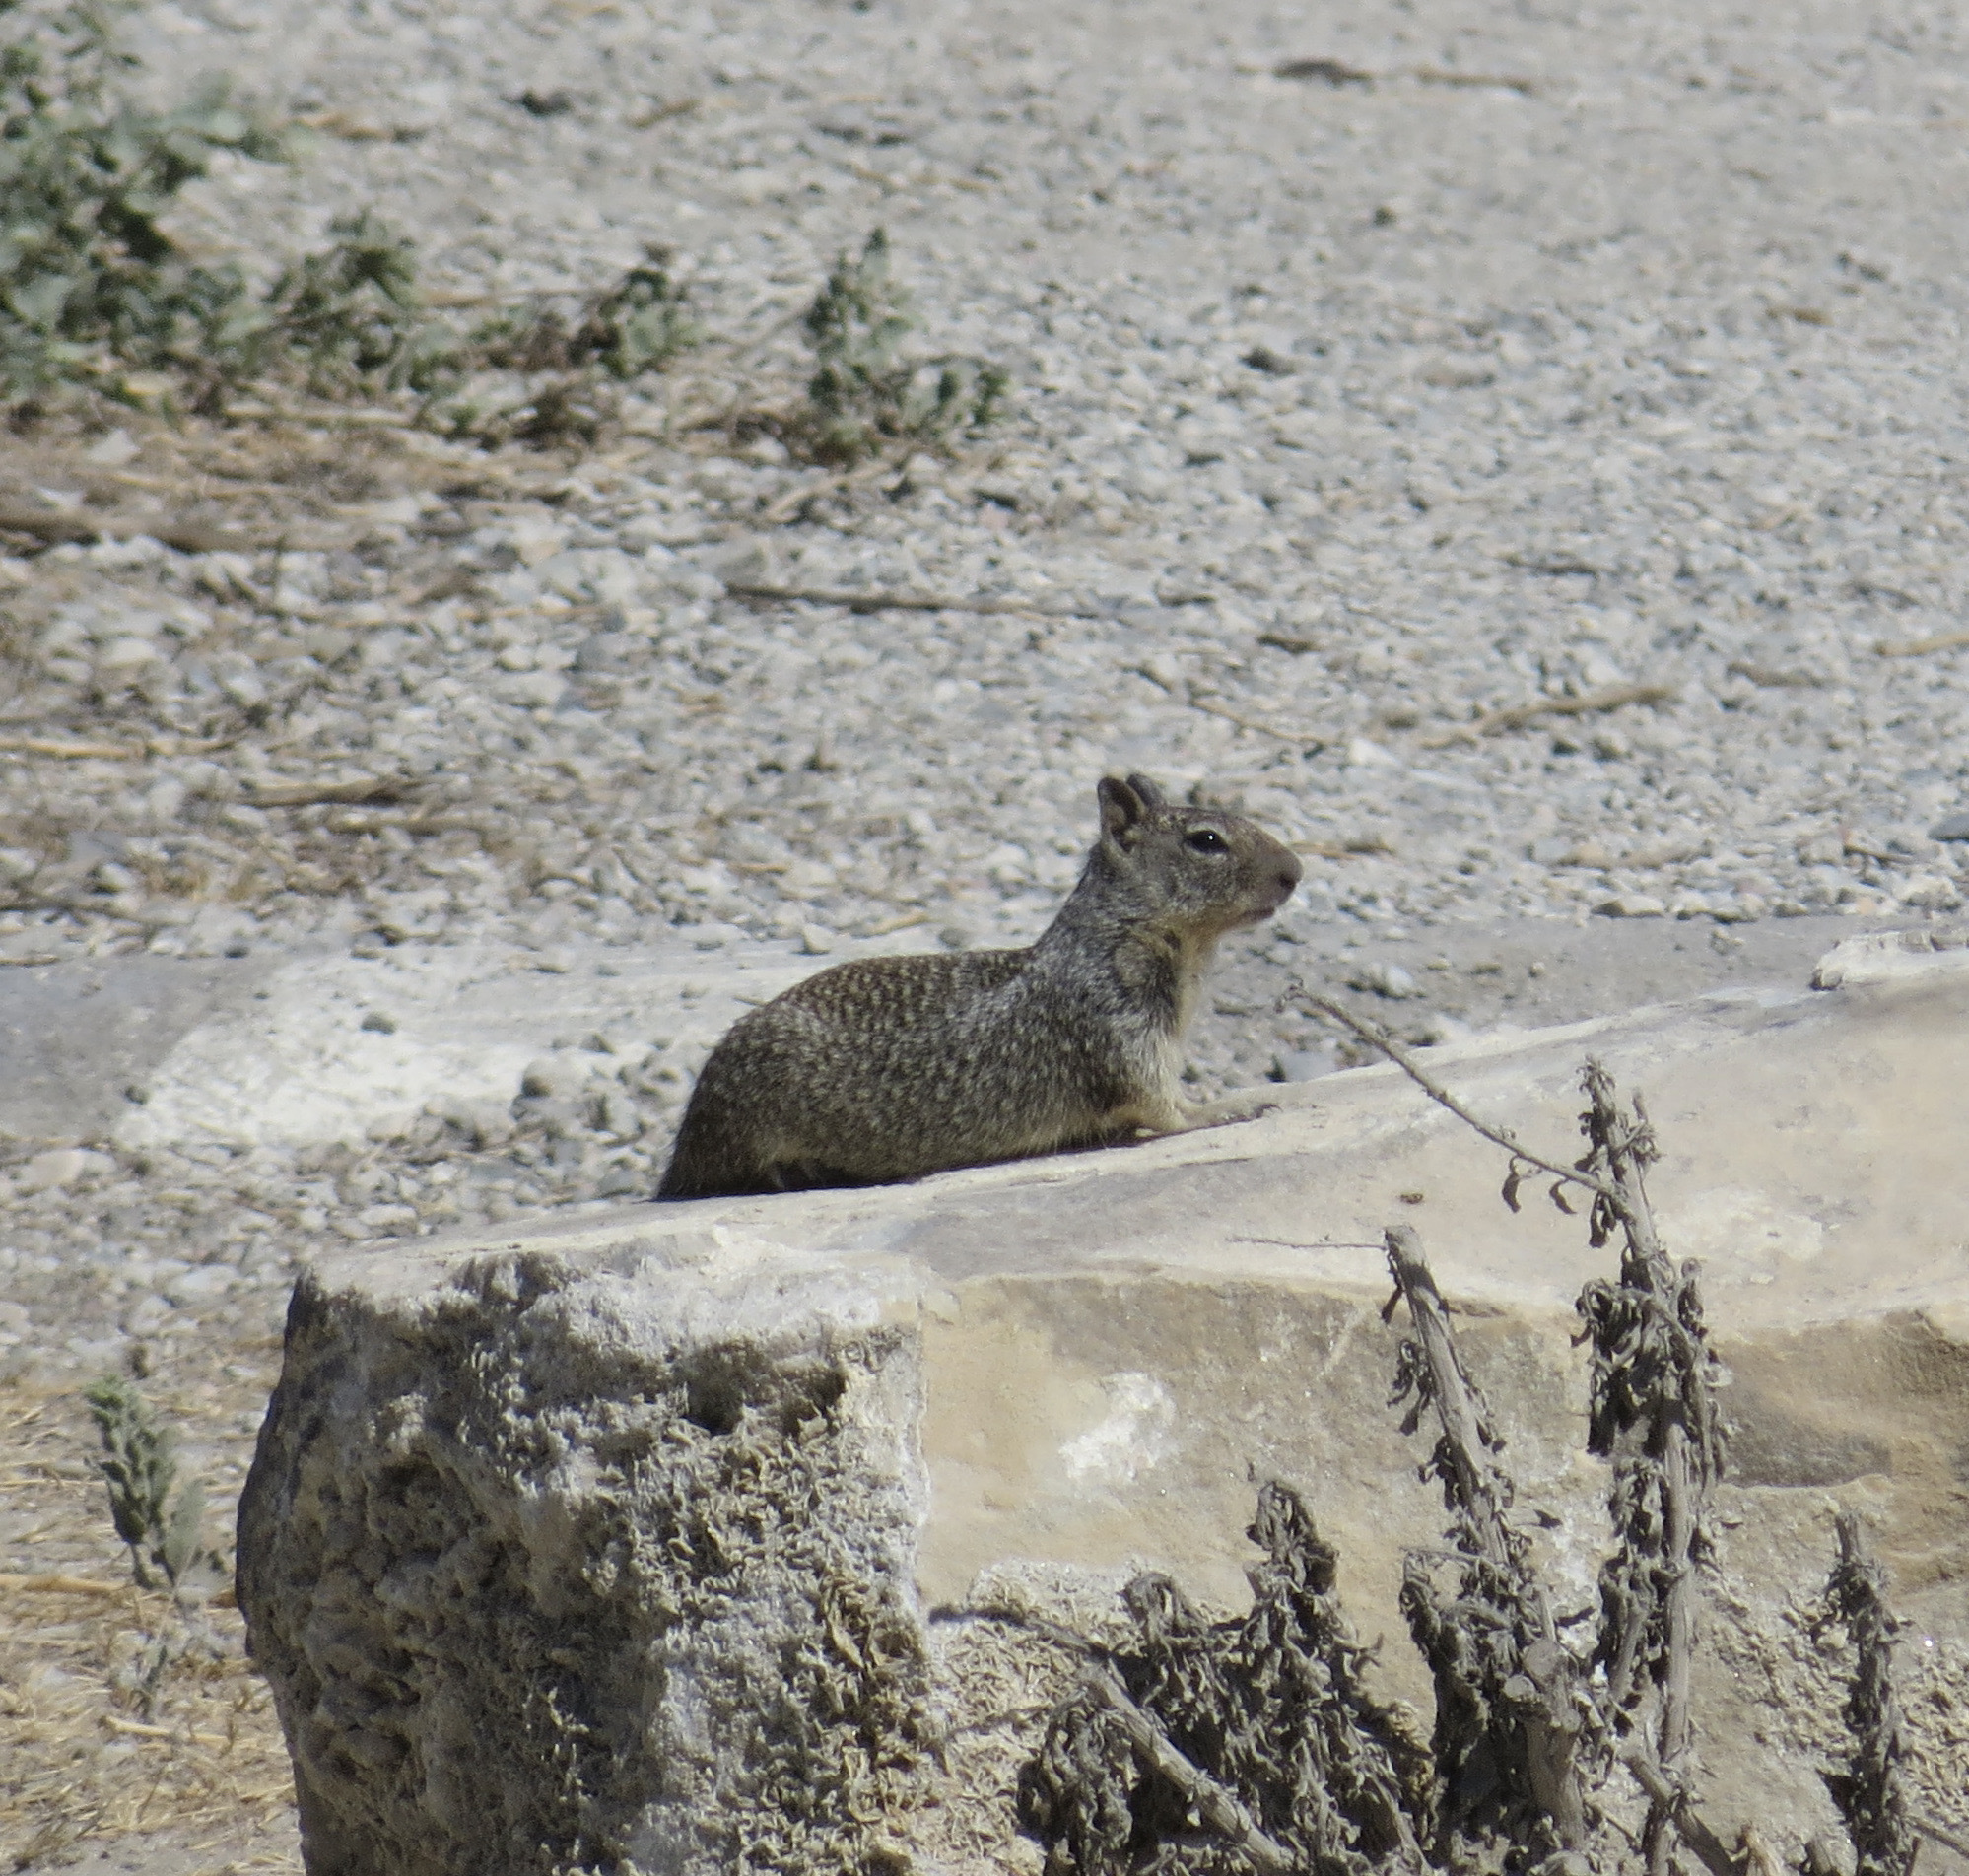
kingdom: Animalia
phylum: Chordata
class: Mammalia
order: Rodentia
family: Sciuridae
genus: Otospermophilus
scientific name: Otospermophilus beecheyi
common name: California ground squirrel
